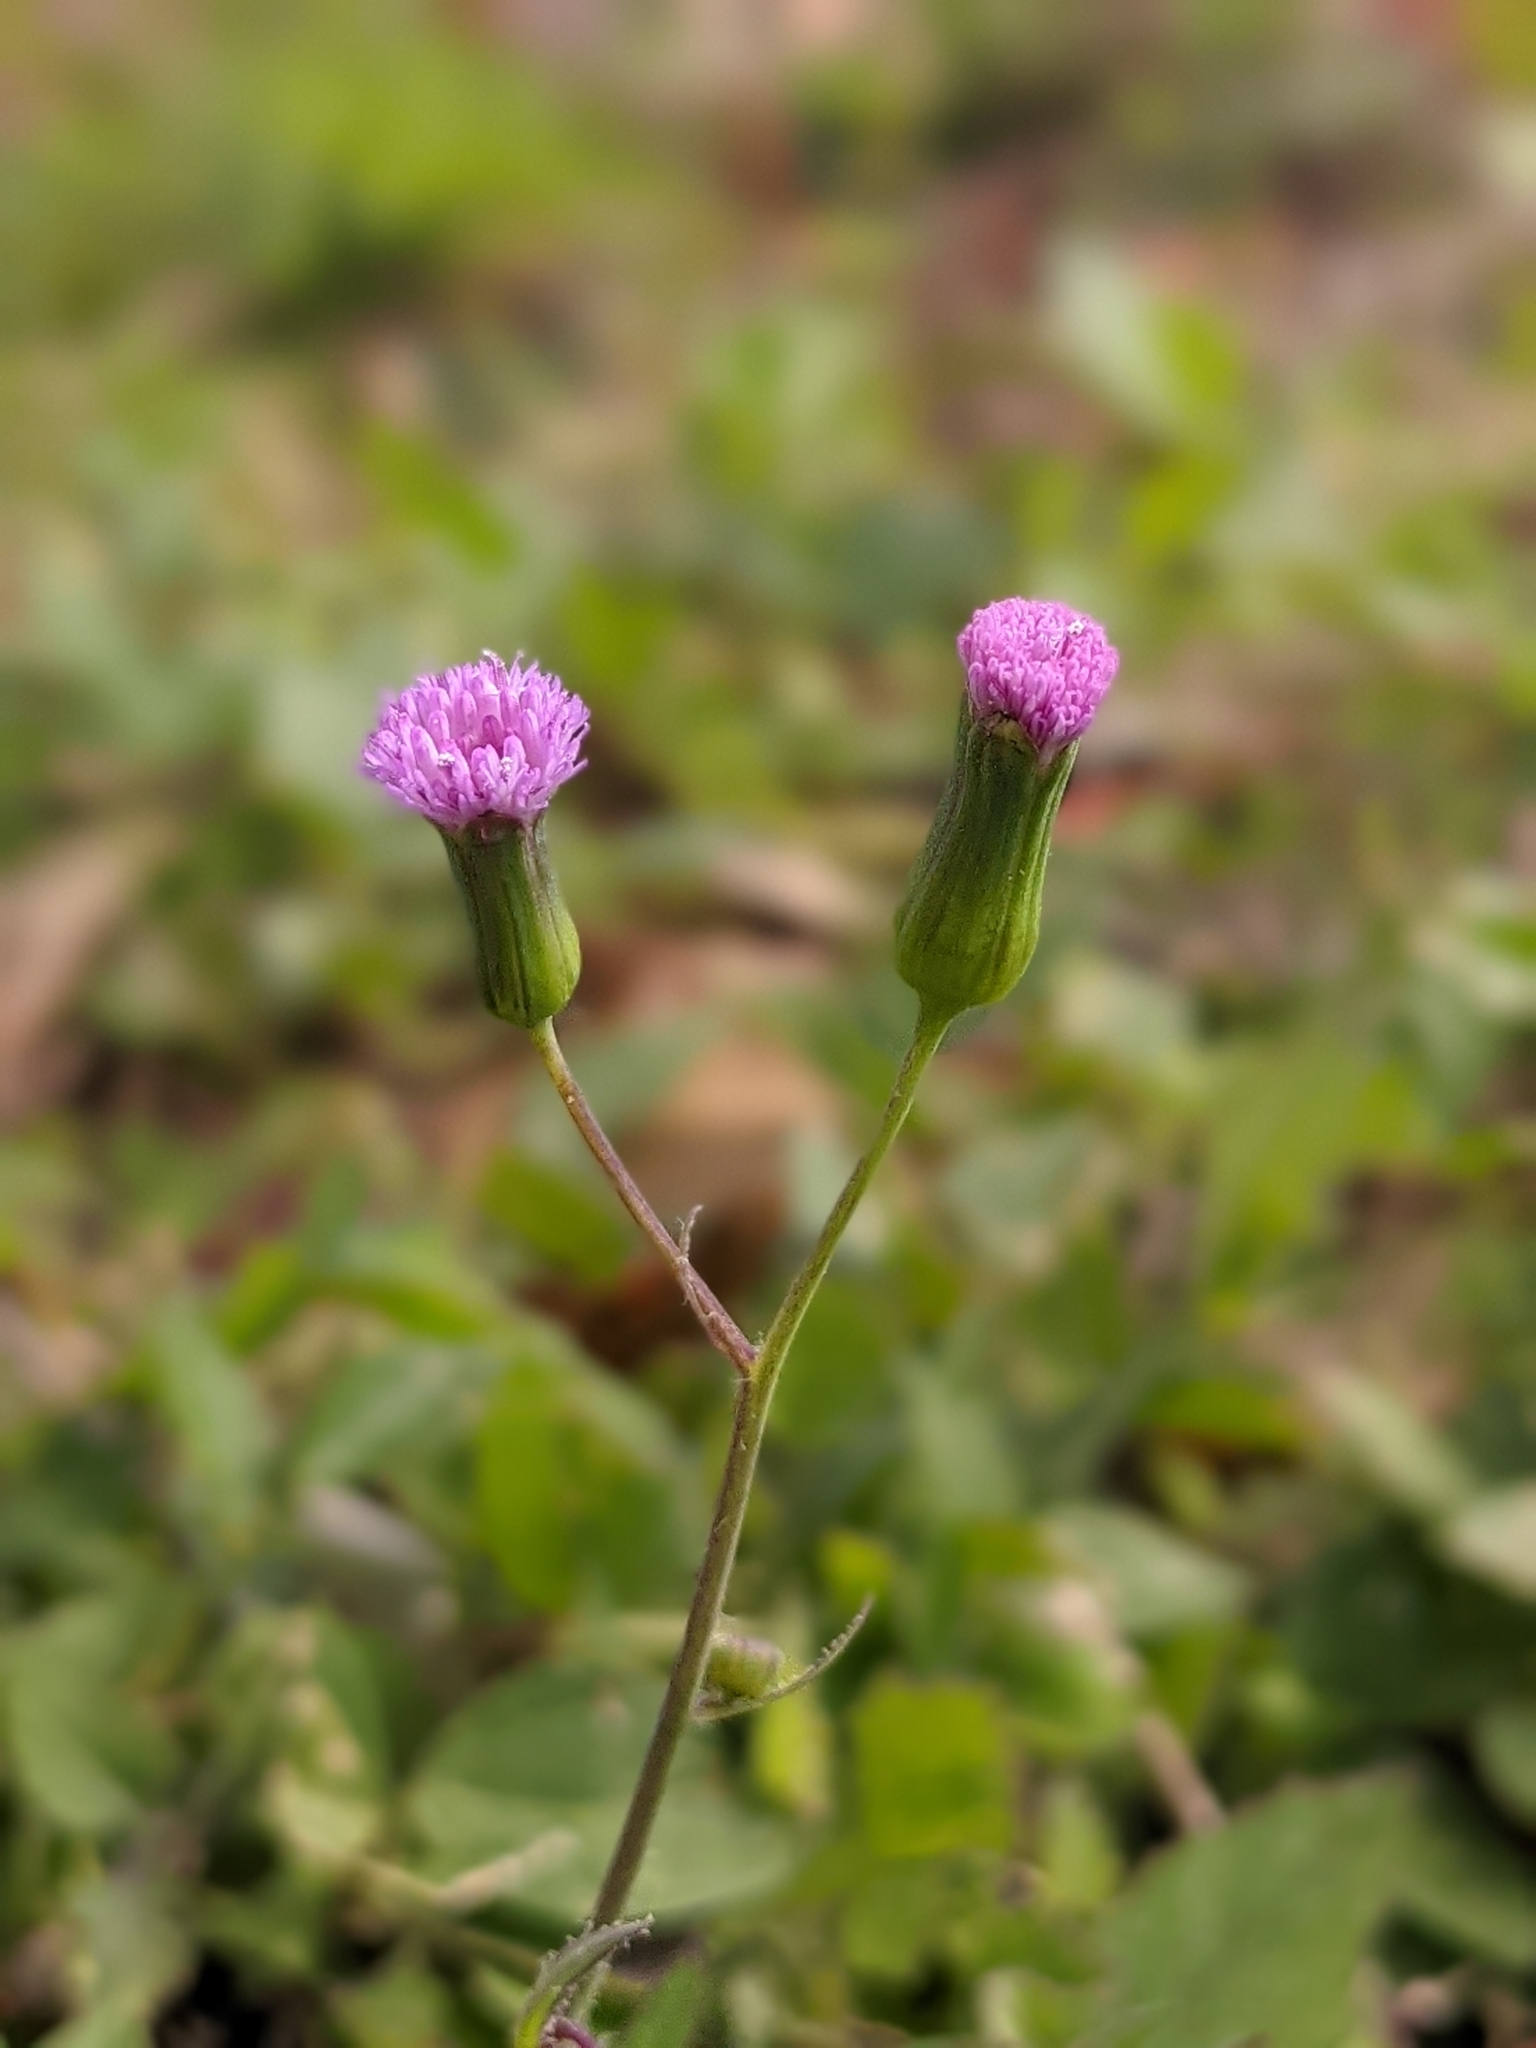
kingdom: Plantae
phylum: Tracheophyta
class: Magnoliopsida
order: Asterales
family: Asteraceae
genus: Emilia
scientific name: Emilia sonchifolia
